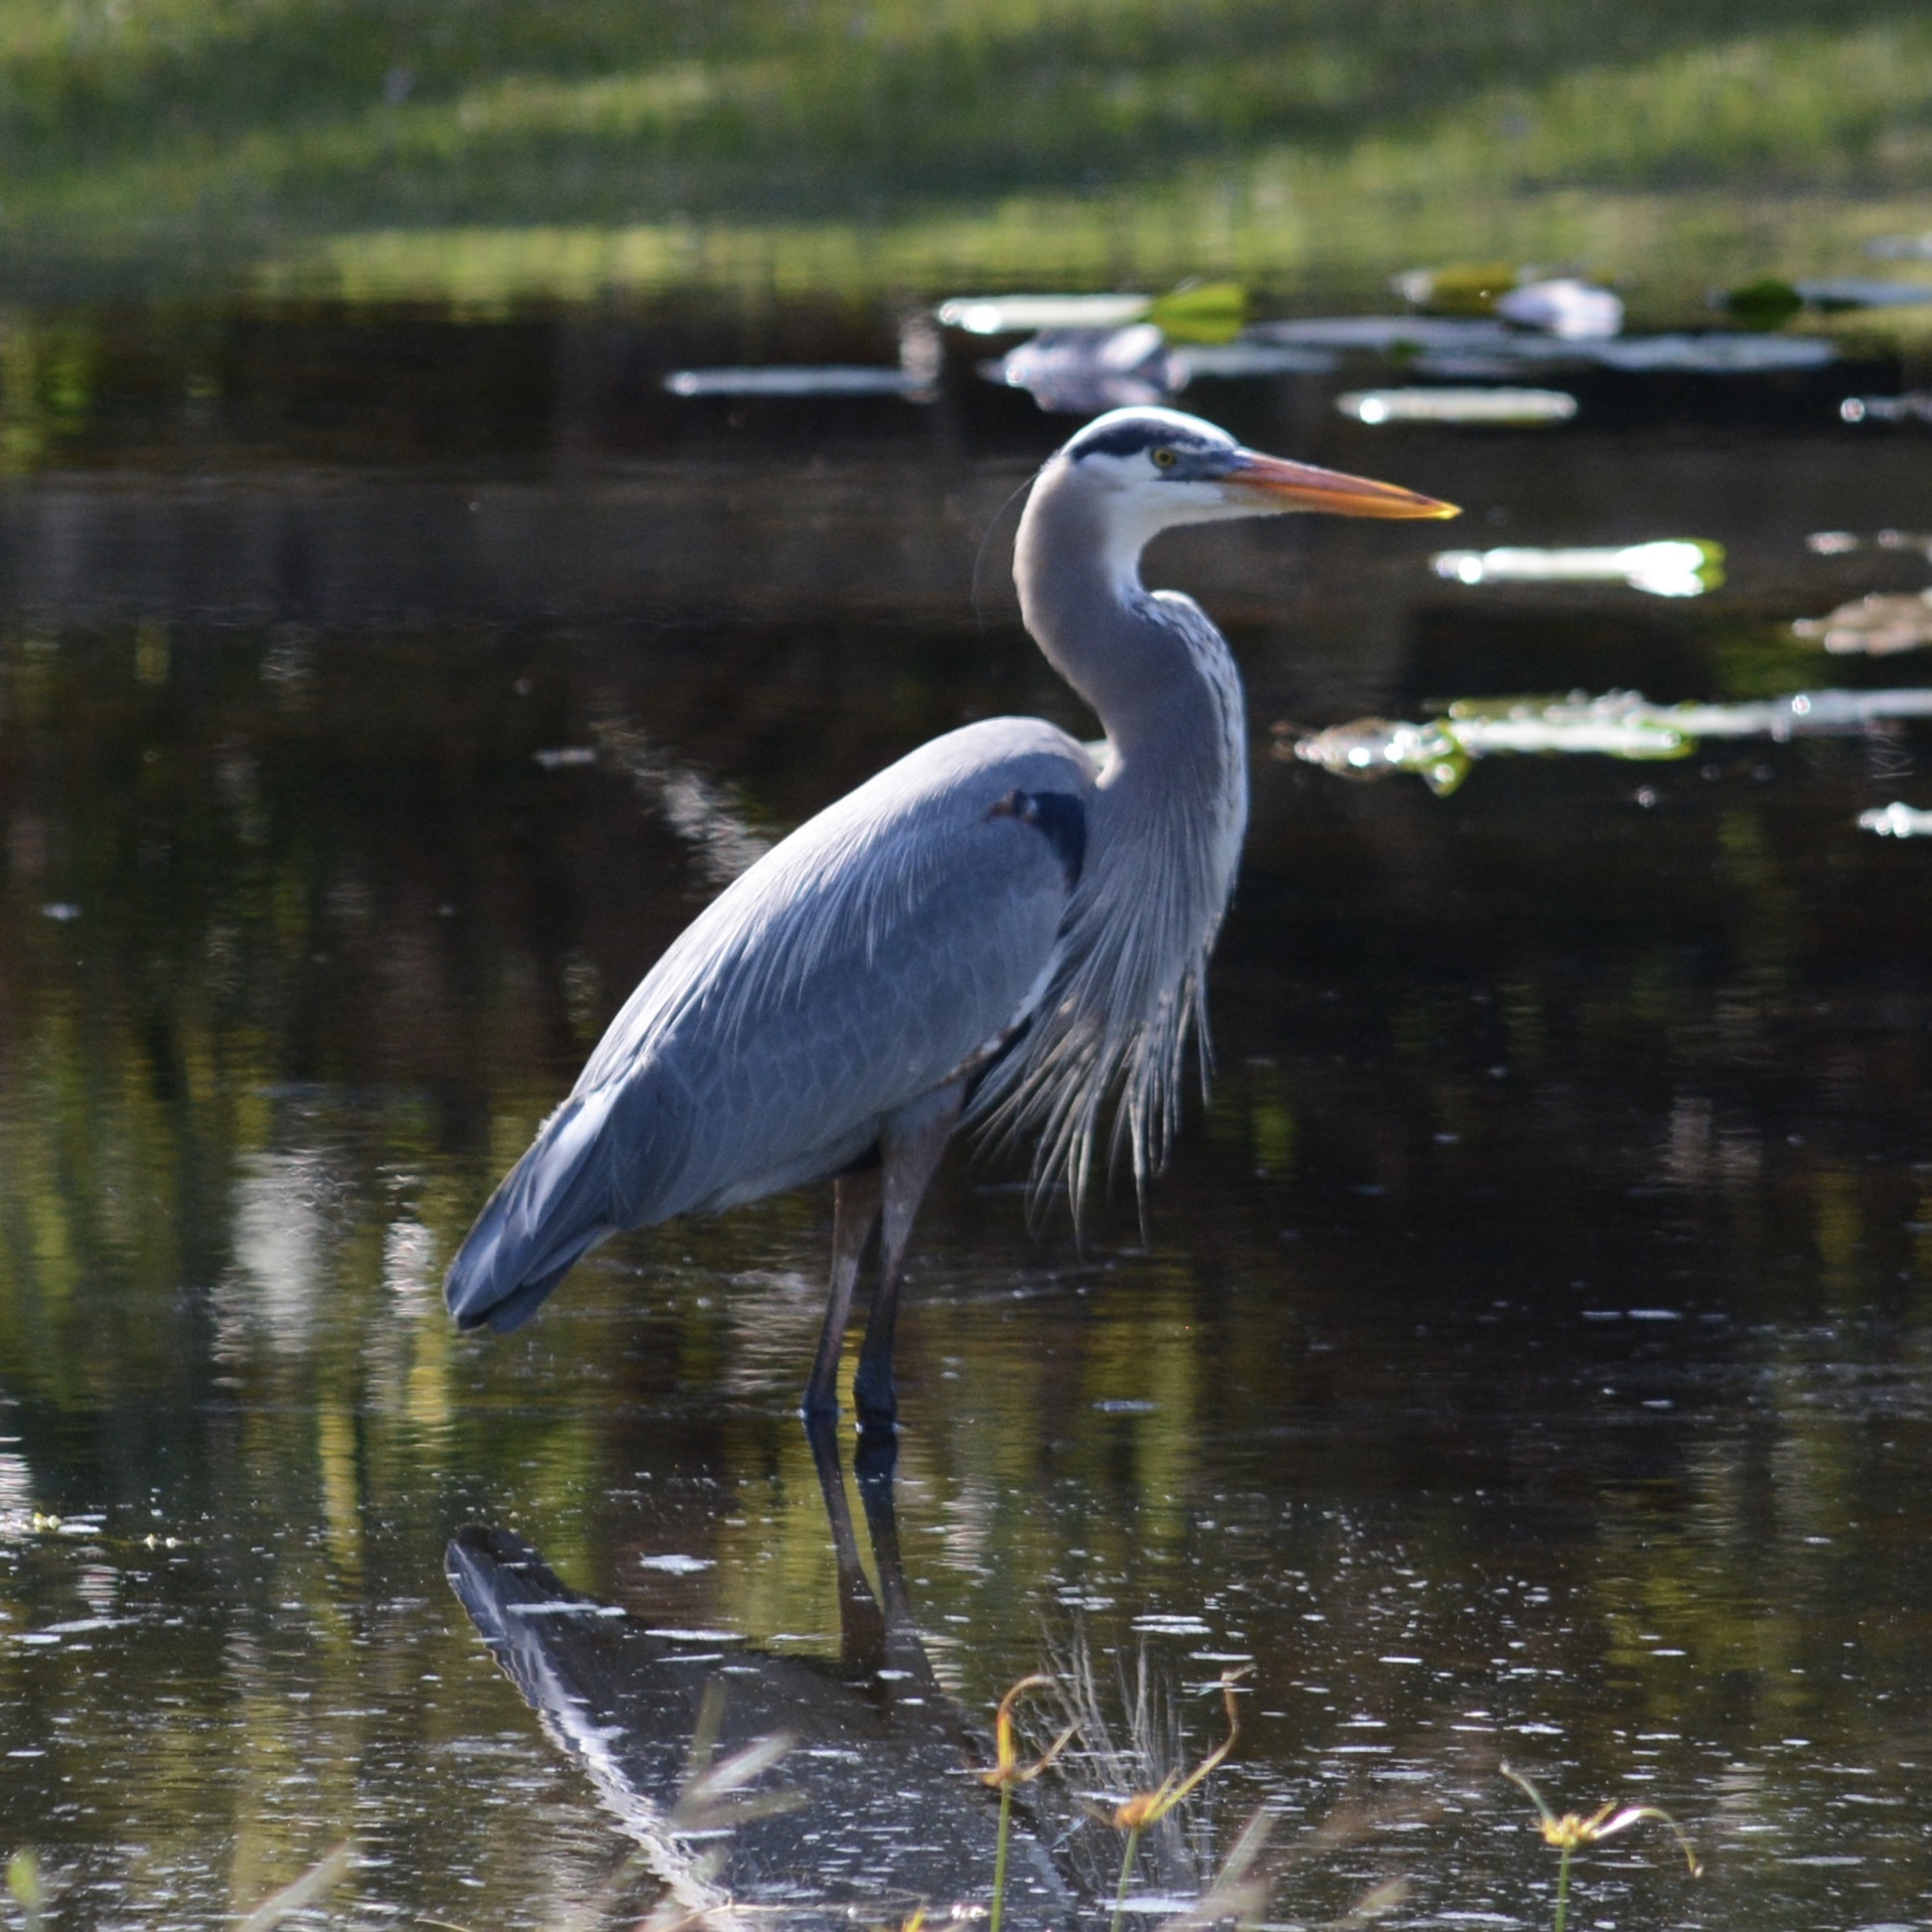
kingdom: Animalia
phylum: Chordata
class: Aves
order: Pelecaniformes
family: Ardeidae
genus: Ardea
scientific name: Ardea herodias
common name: Great blue heron
